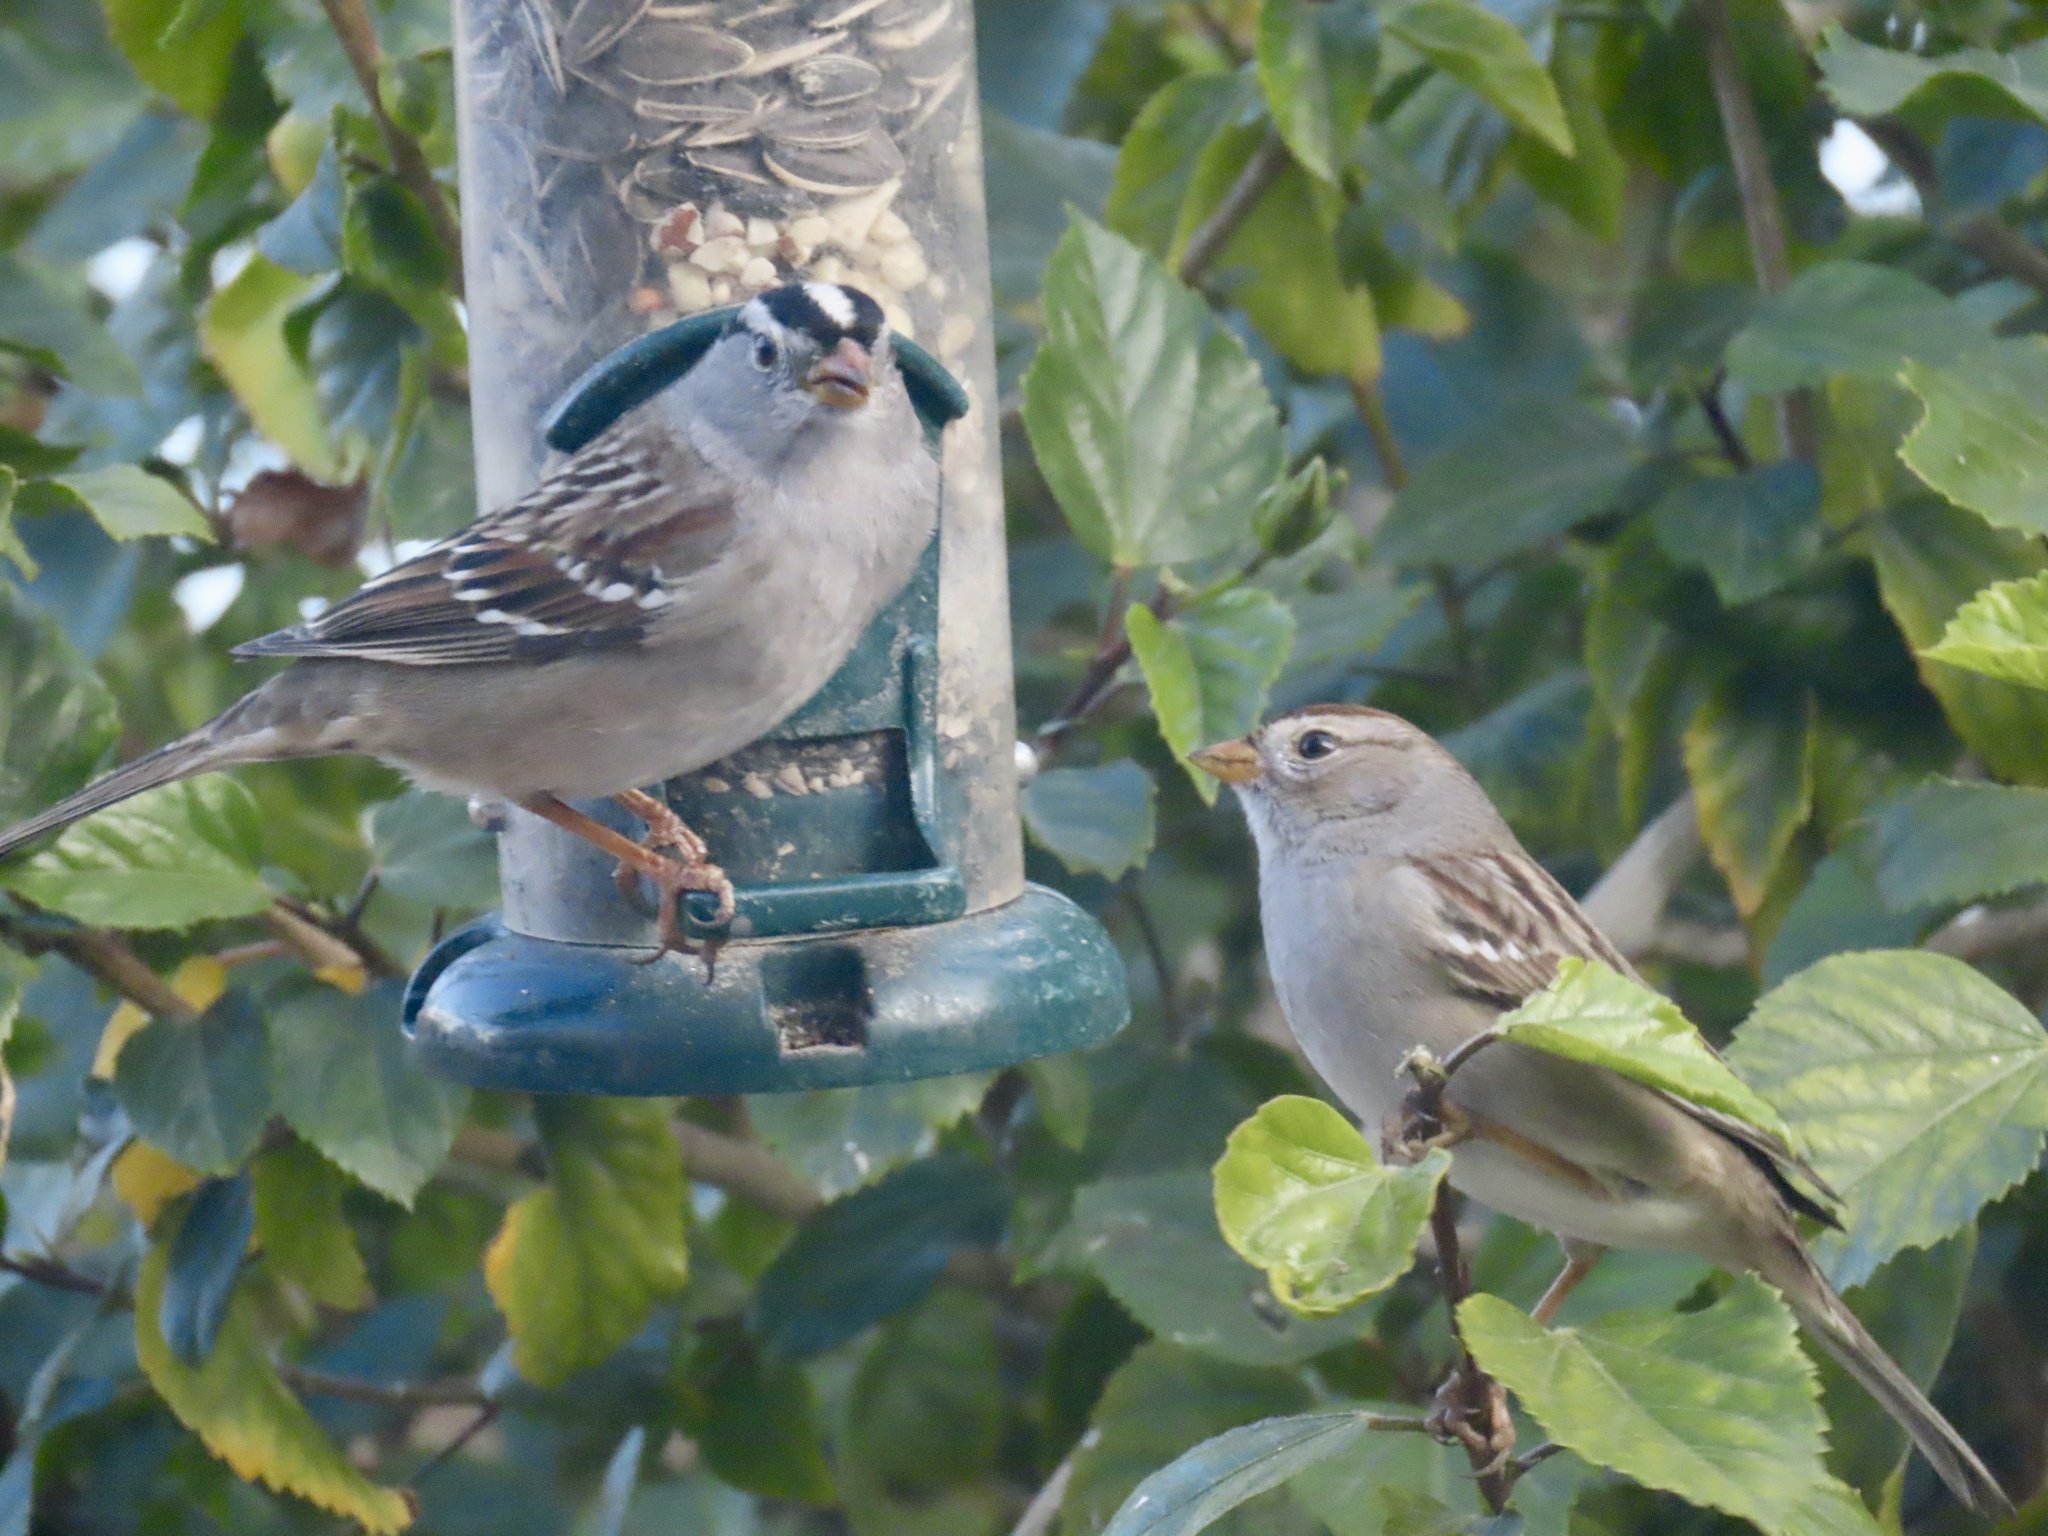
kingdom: Animalia
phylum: Chordata
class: Aves
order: Passeriformes
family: Passerellidae
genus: Zonotrichia
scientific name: Zonotrichia leucophrys
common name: White-crowned sparrow
